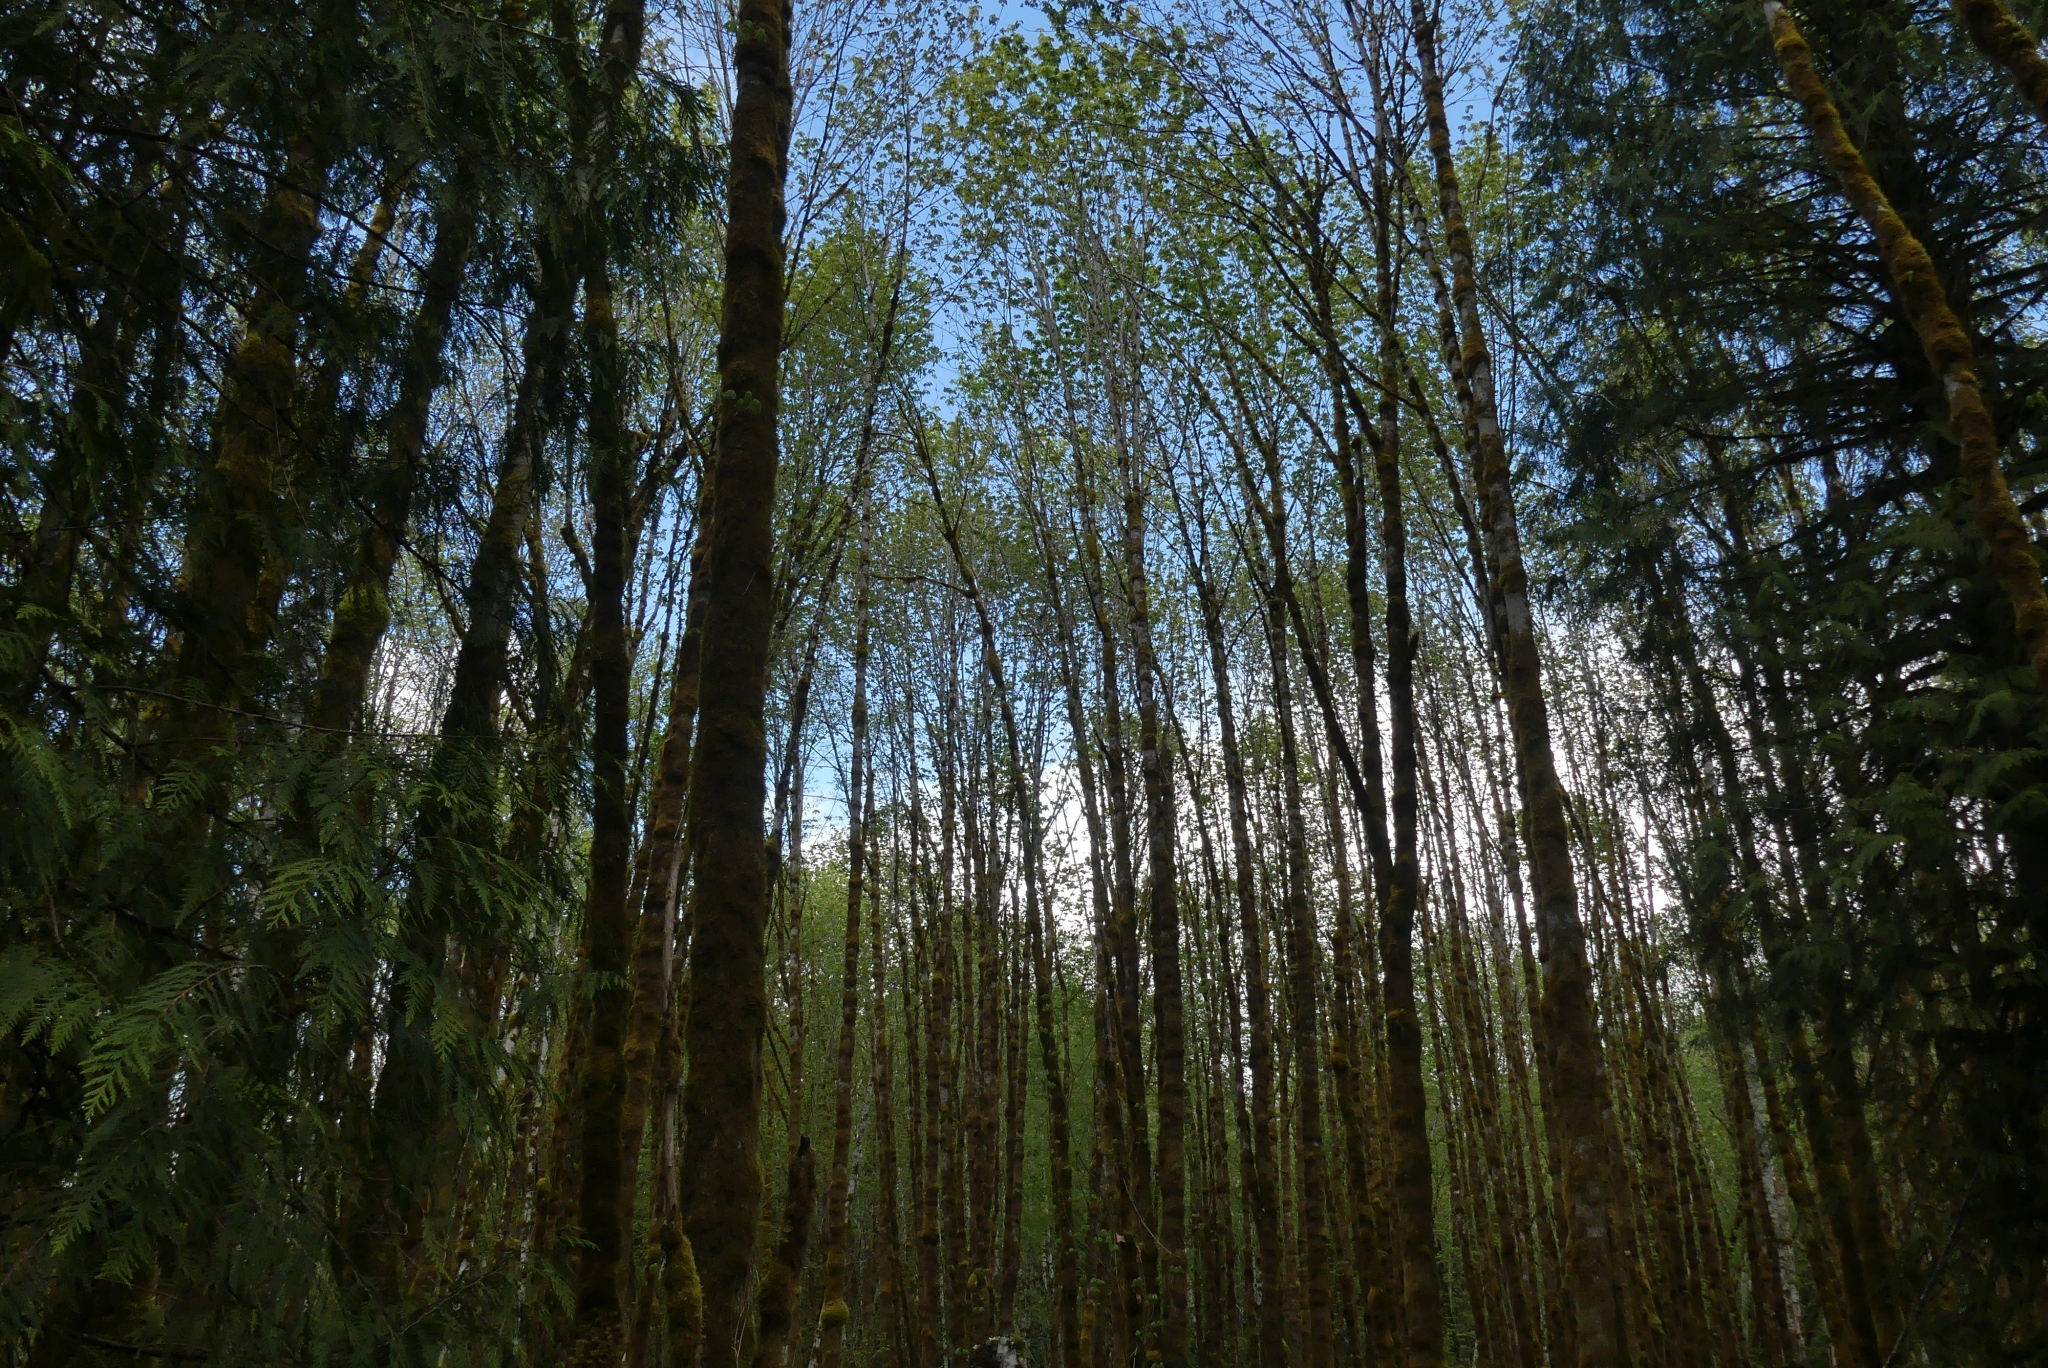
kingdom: Plantae
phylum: Tracheophyta
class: Magnoliopsida
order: Sapindales
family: Sapindaceae
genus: Acer
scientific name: Acer macrophyllum
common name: Oregon maple
